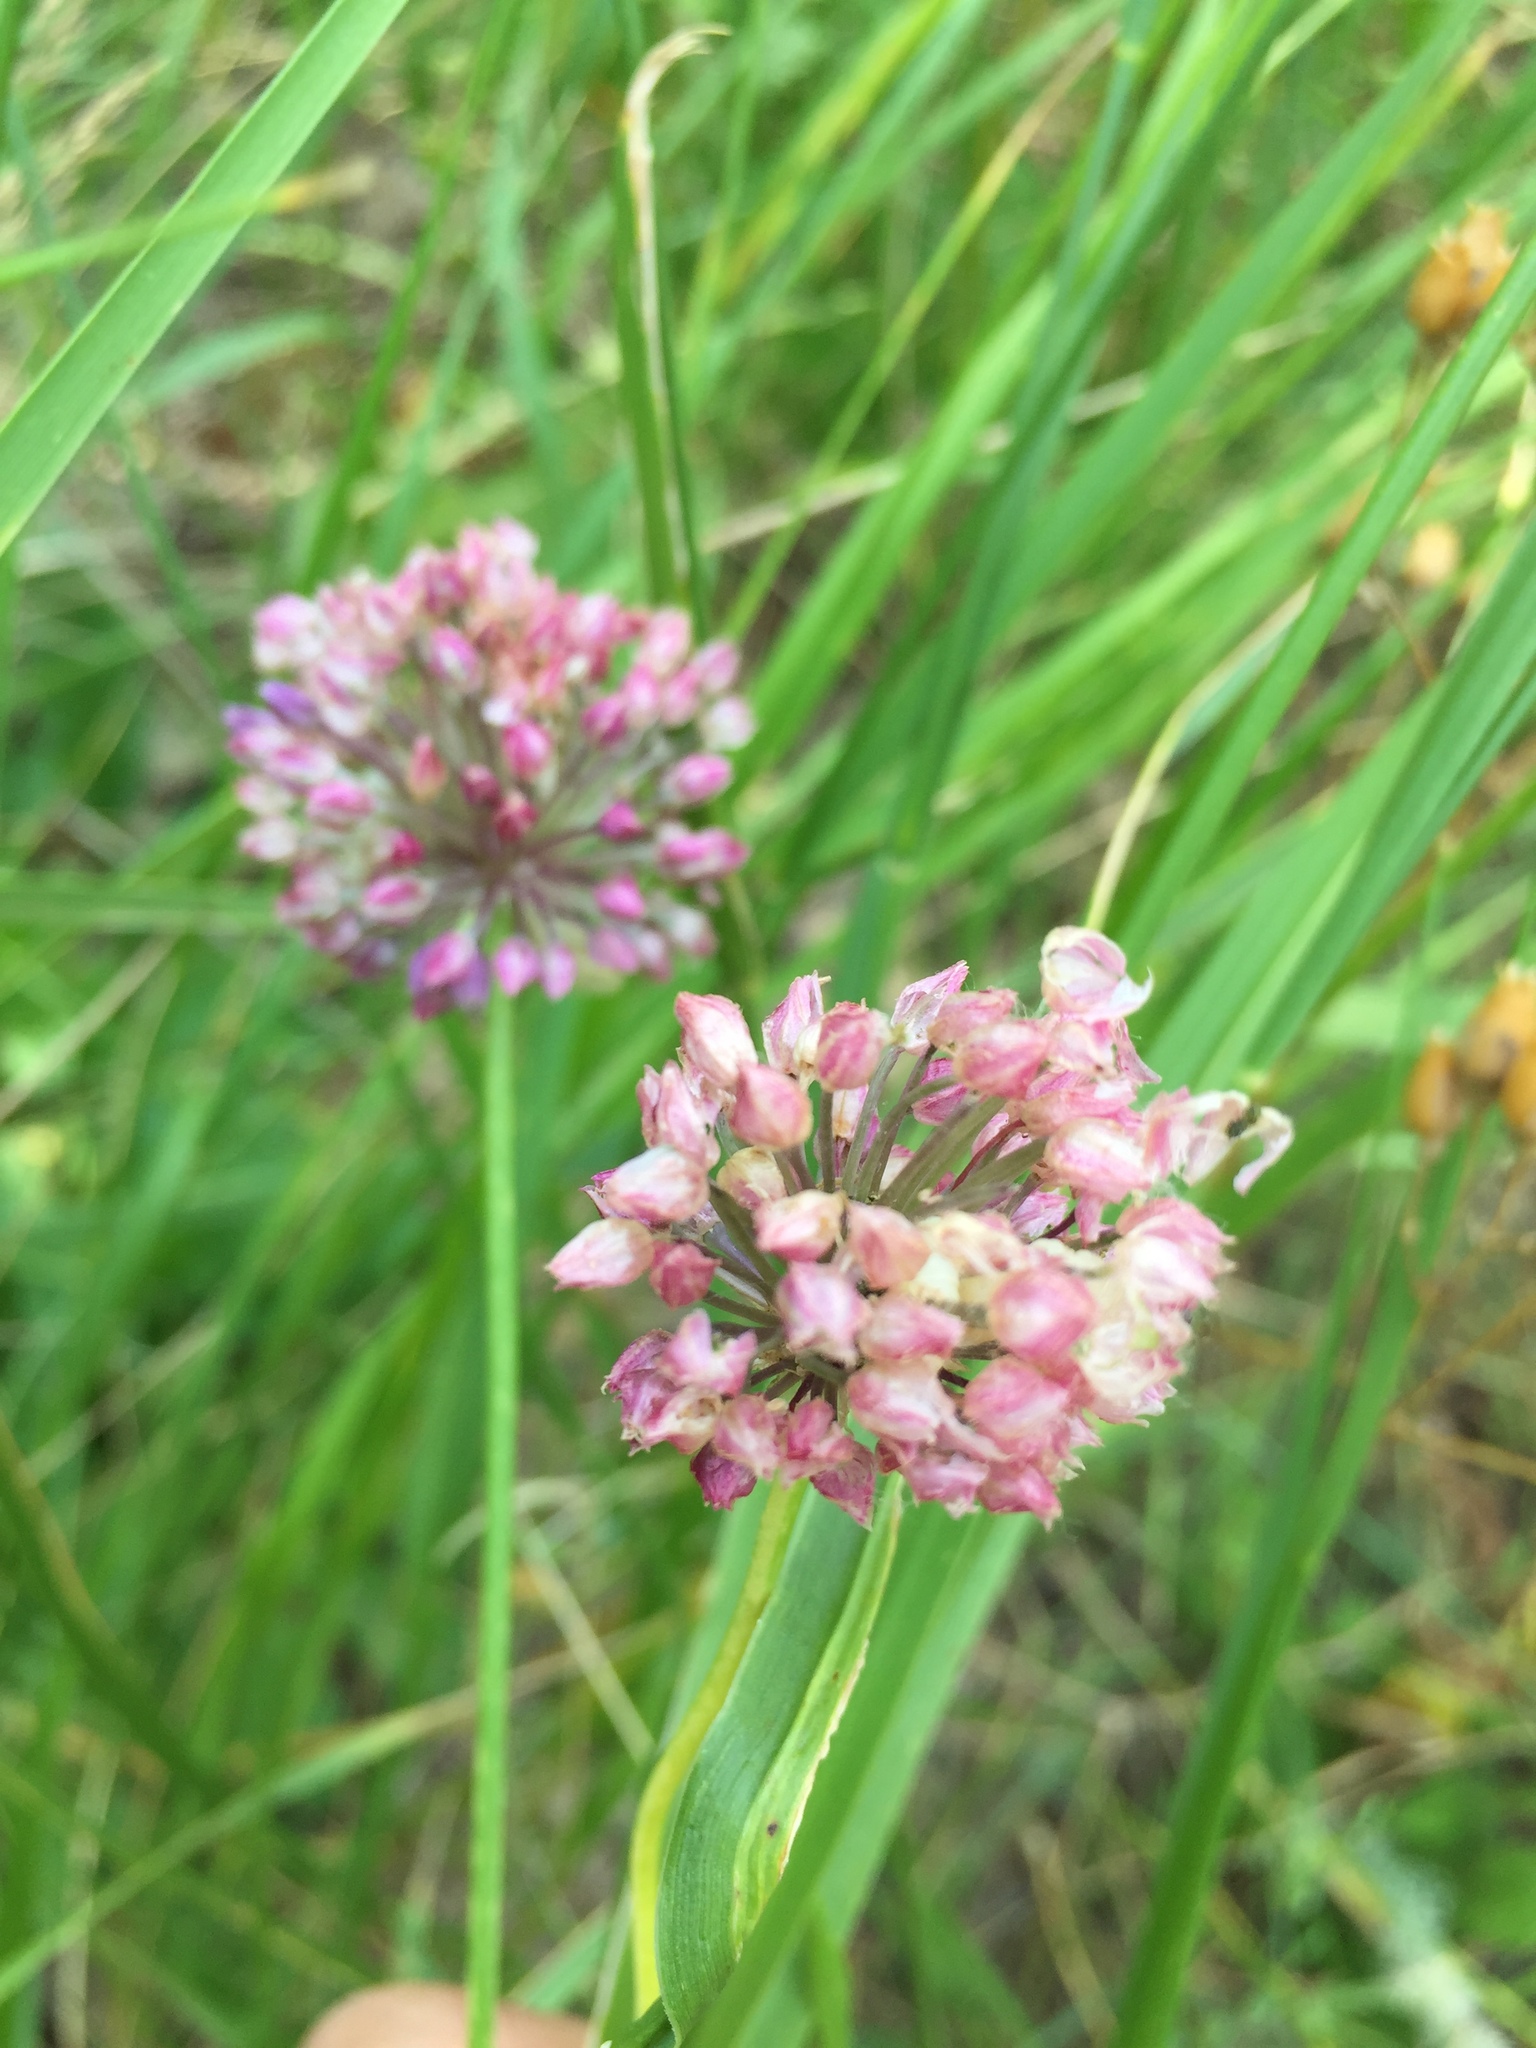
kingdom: Plantae
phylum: Tracheophyta
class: Liliopsida
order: Asparagales
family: Amaryllidaceae
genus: Allium
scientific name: Allium rotundum
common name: Sand leek
